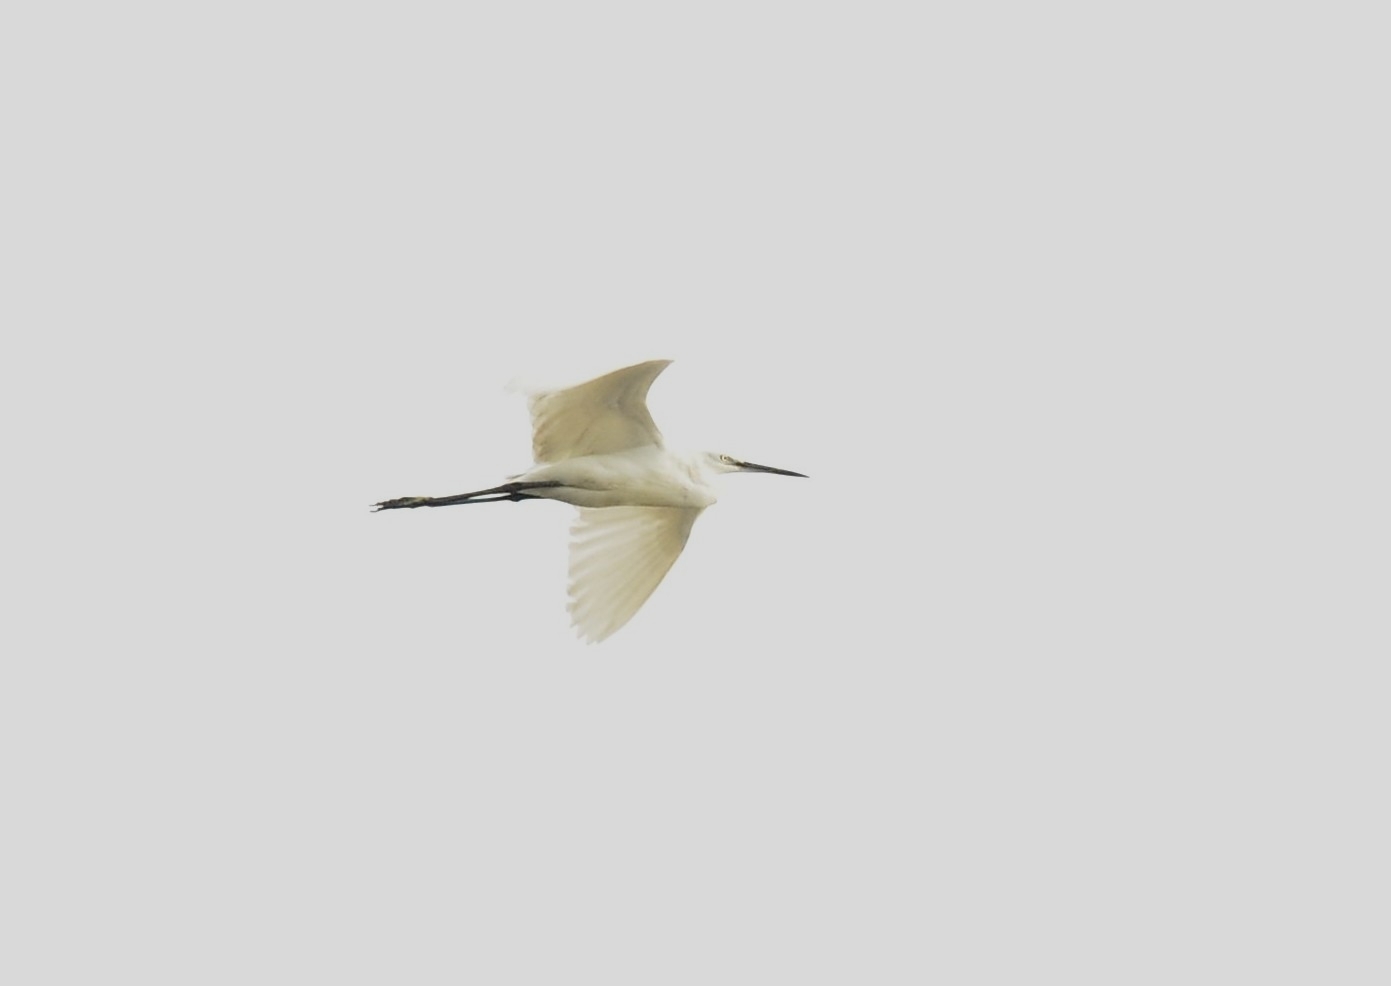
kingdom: Animalia
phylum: Chordata
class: Aves
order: Pelecaniformes
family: Ardeidae
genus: Egretta
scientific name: Egretta garzetta
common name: Little egret
